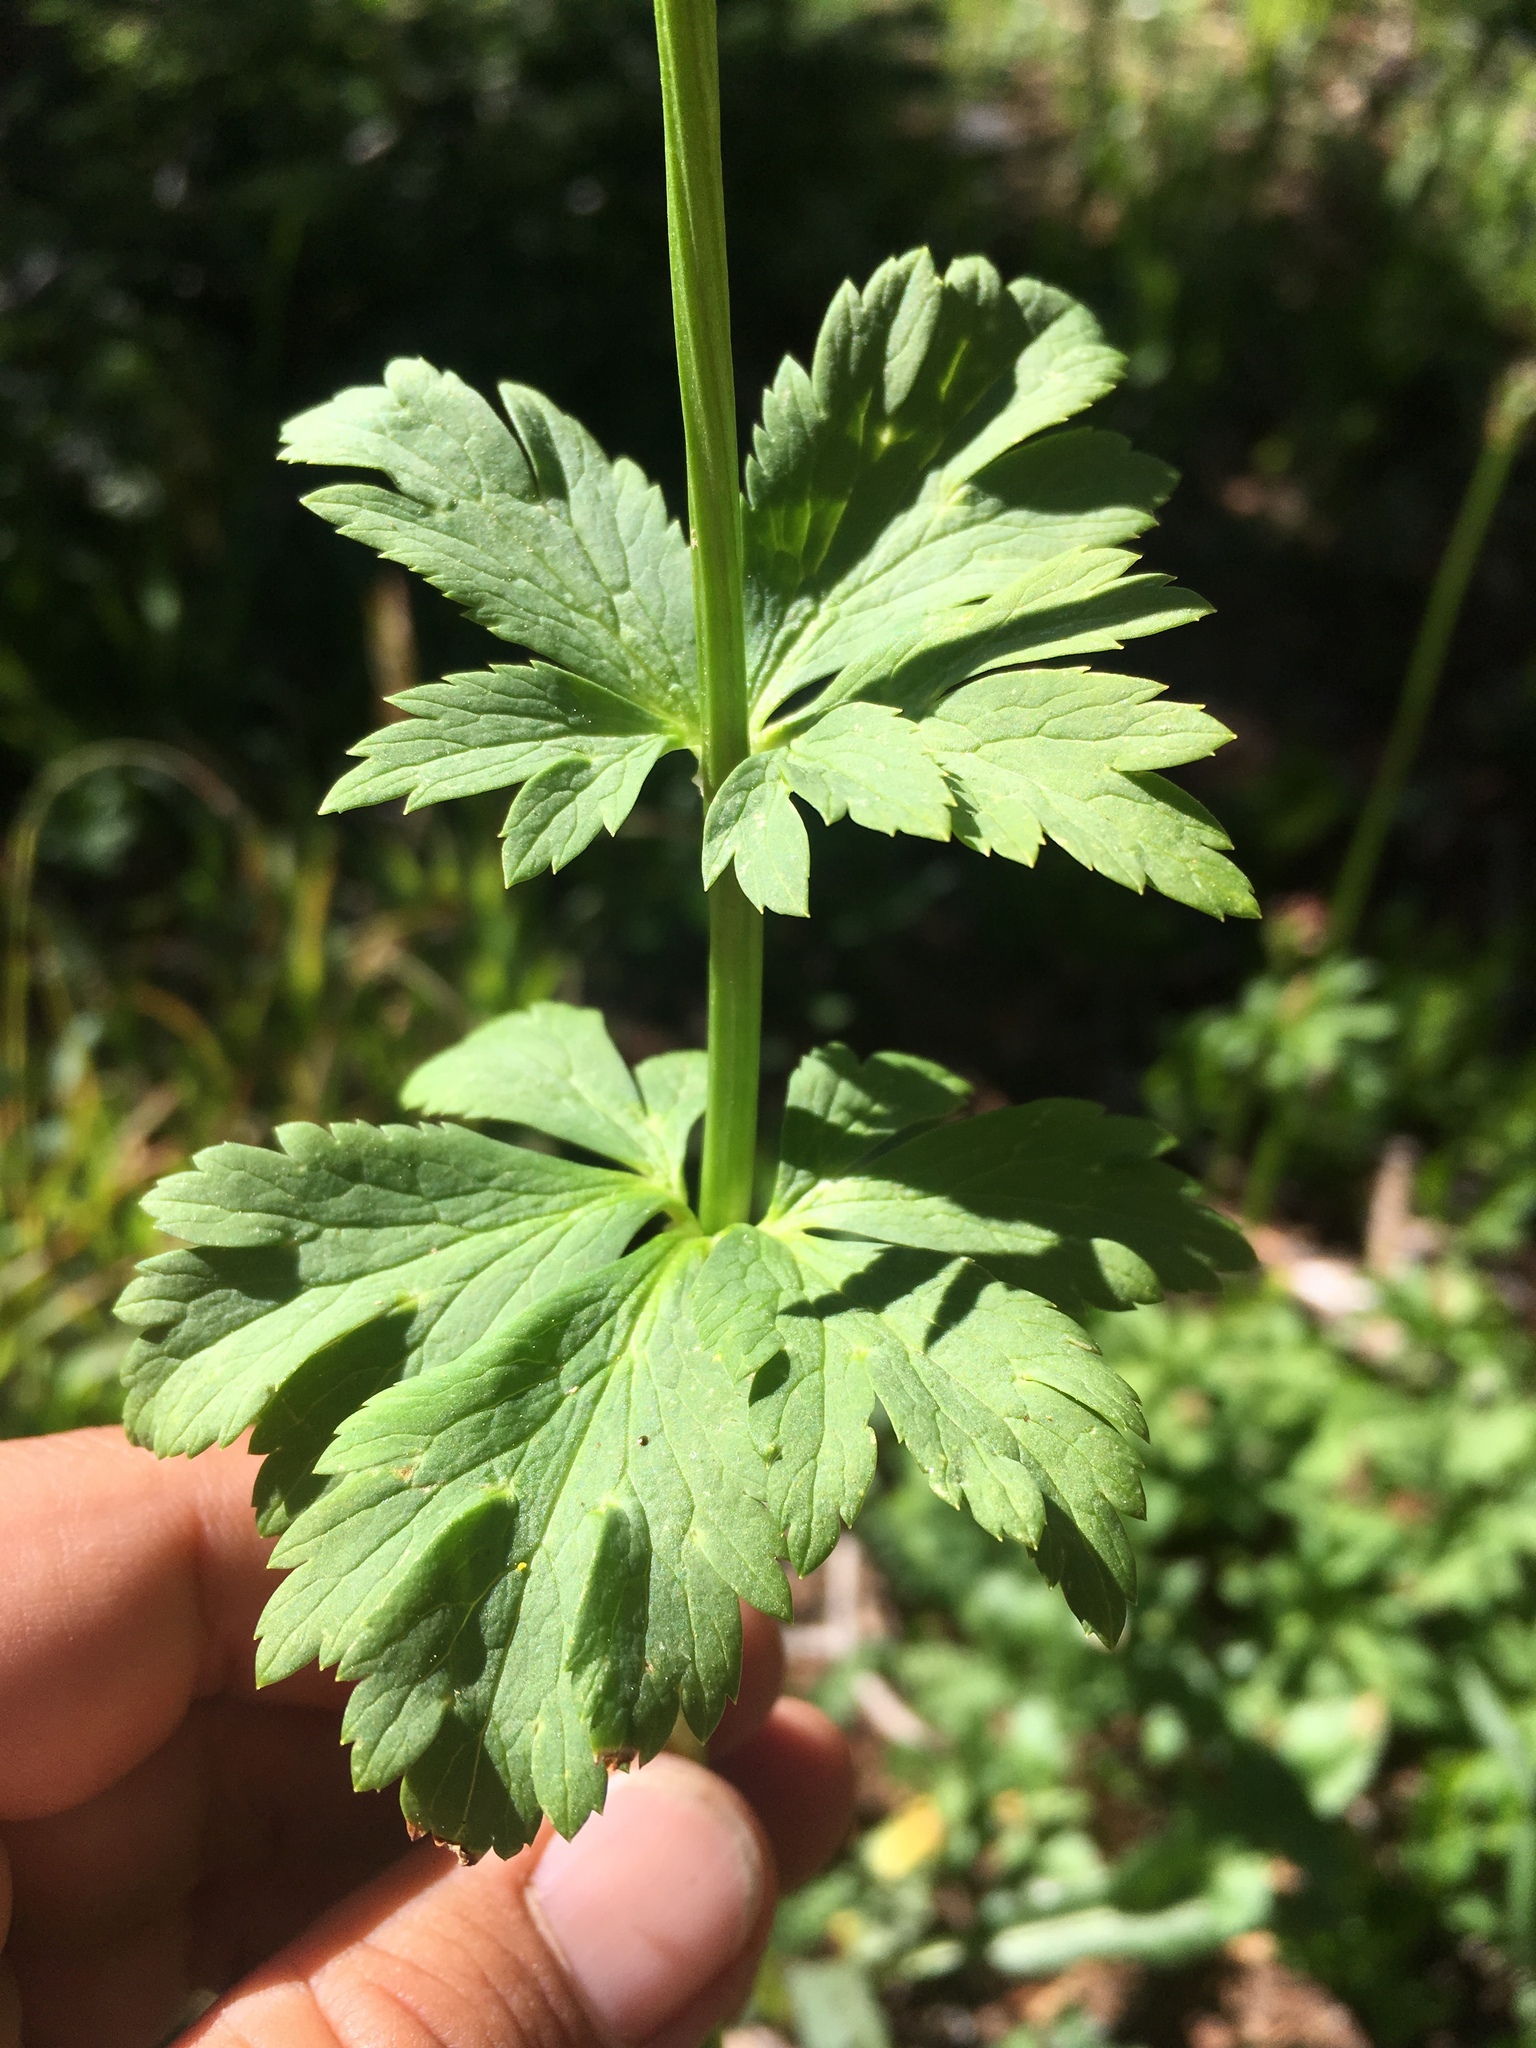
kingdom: Plantae
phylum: Tracheophyta
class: Magnoliopsida
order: Ranunculales
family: Ranunculaceae
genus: Trollius
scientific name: Trollius laxus
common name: American globeflower
